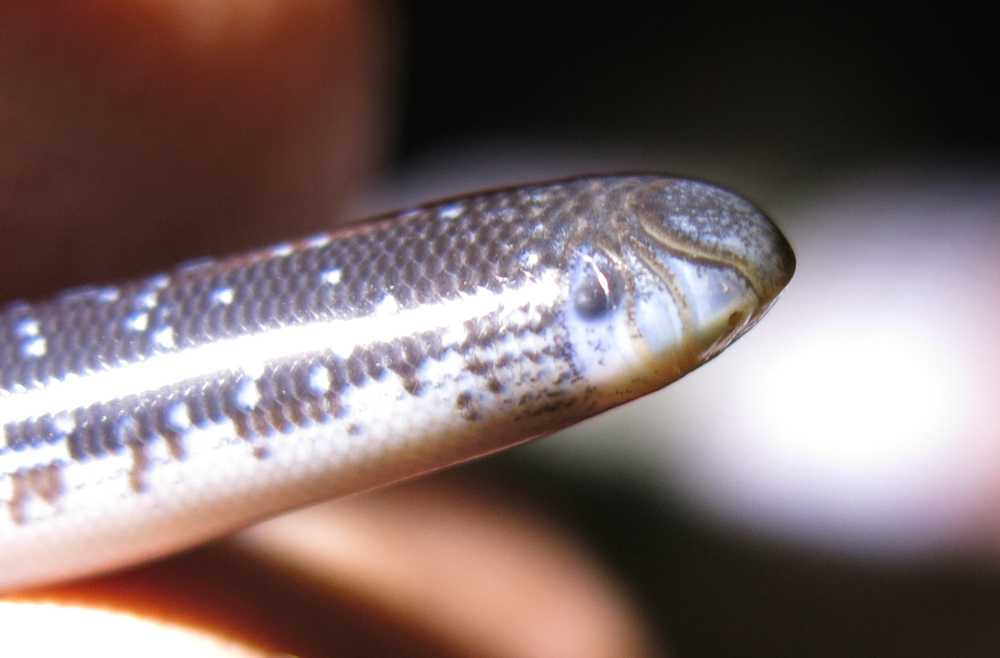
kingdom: Animalia
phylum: Chordata
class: Squamata
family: Typhlopidae
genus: Afrotyphlops
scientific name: Afrotyphlops schlegelii
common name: Schlegel's giant blind snake
